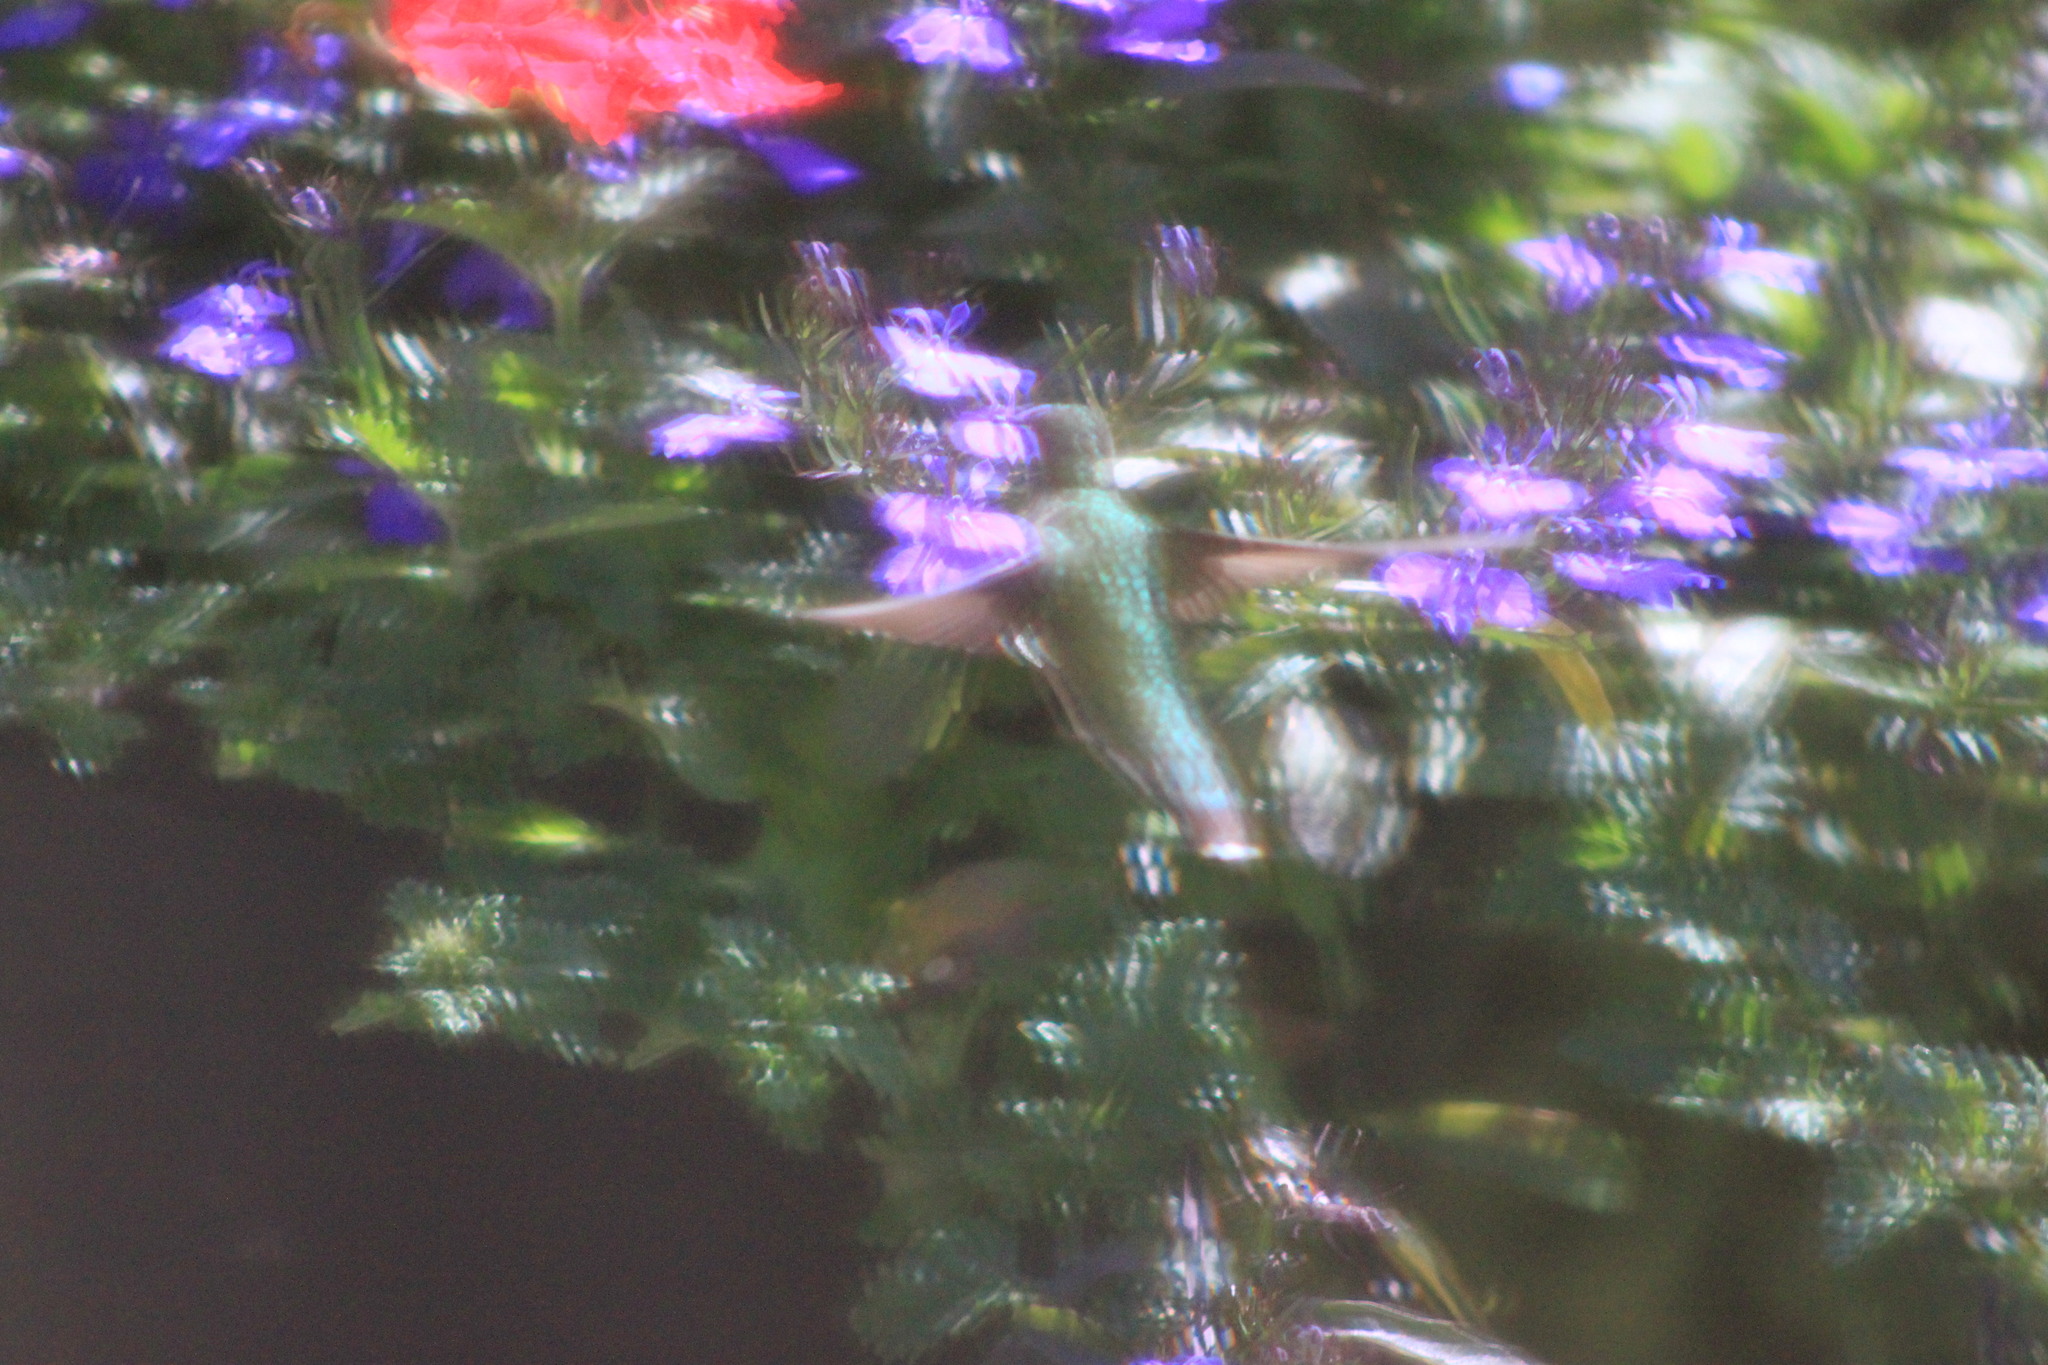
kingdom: Animalia
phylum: Chordata
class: Aves
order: Apodiformes
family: Trochilidae
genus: Archilochus
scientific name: Archilochus colubris
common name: Ruby-throated hummingbird
